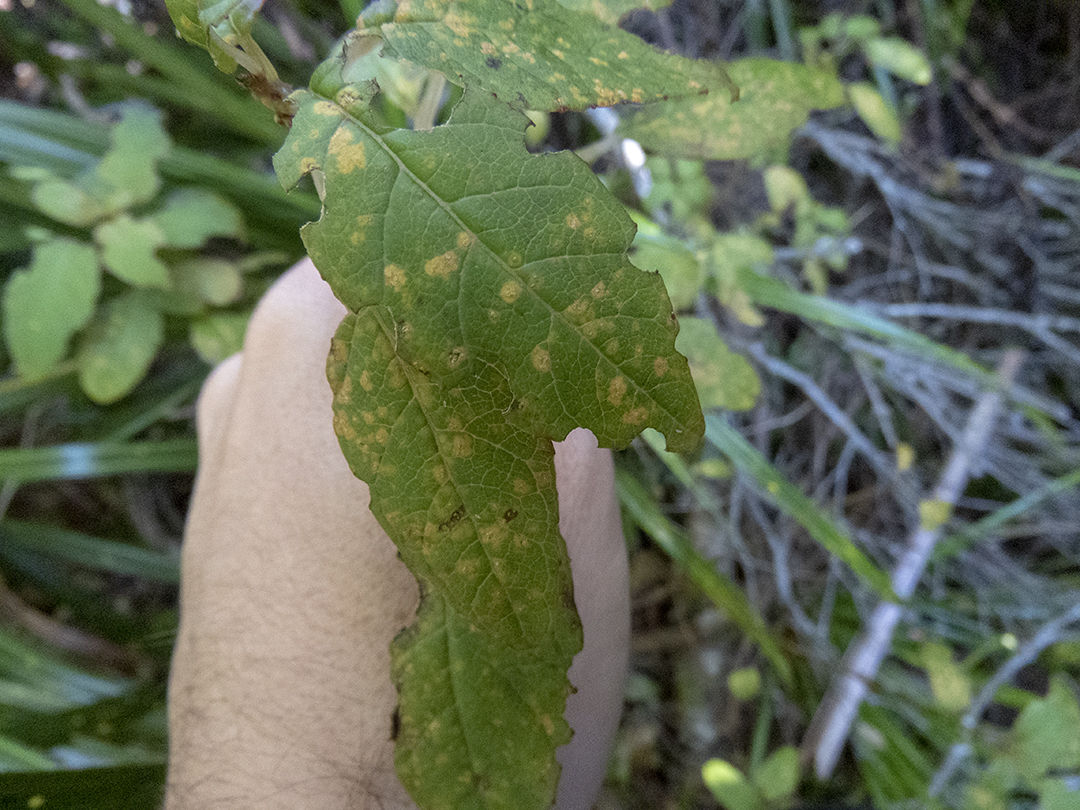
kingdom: Plantae
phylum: Tracheophyta
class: Magnoliopsida
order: Myrtales
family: Onagraceae
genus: Fuchsia
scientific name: Fuchsia colensoi
